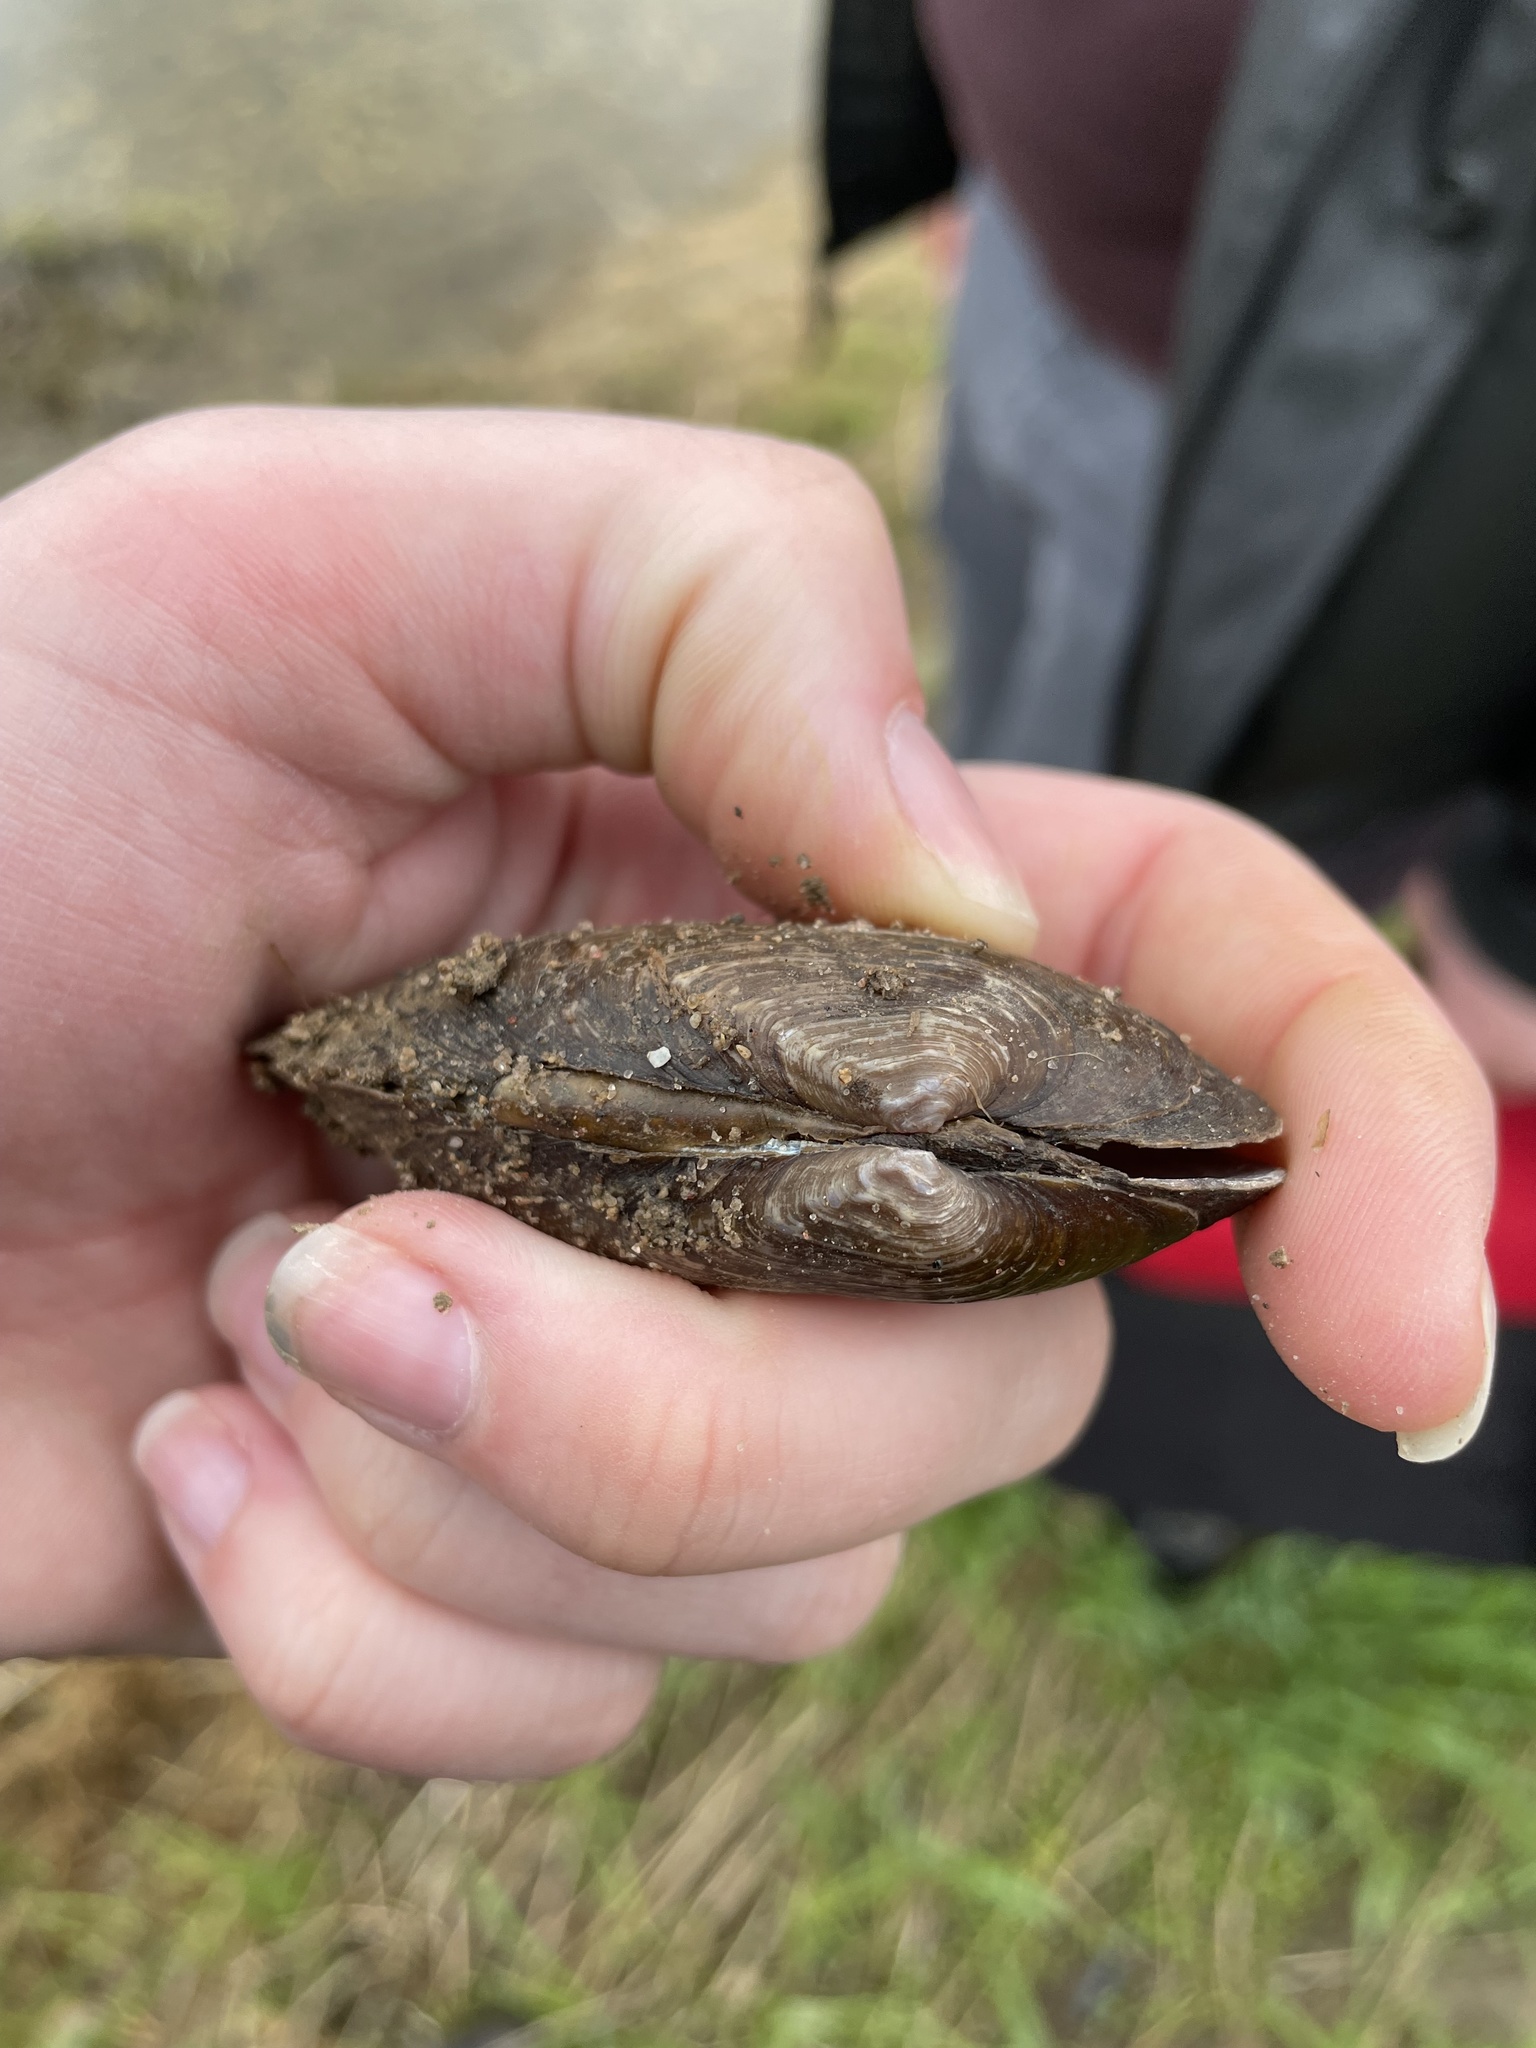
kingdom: Animalia
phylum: Mollusca
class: Bivalvia
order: Unionida
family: Unionidae
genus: Eurynia
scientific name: Eurynia dilatata
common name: Spike
